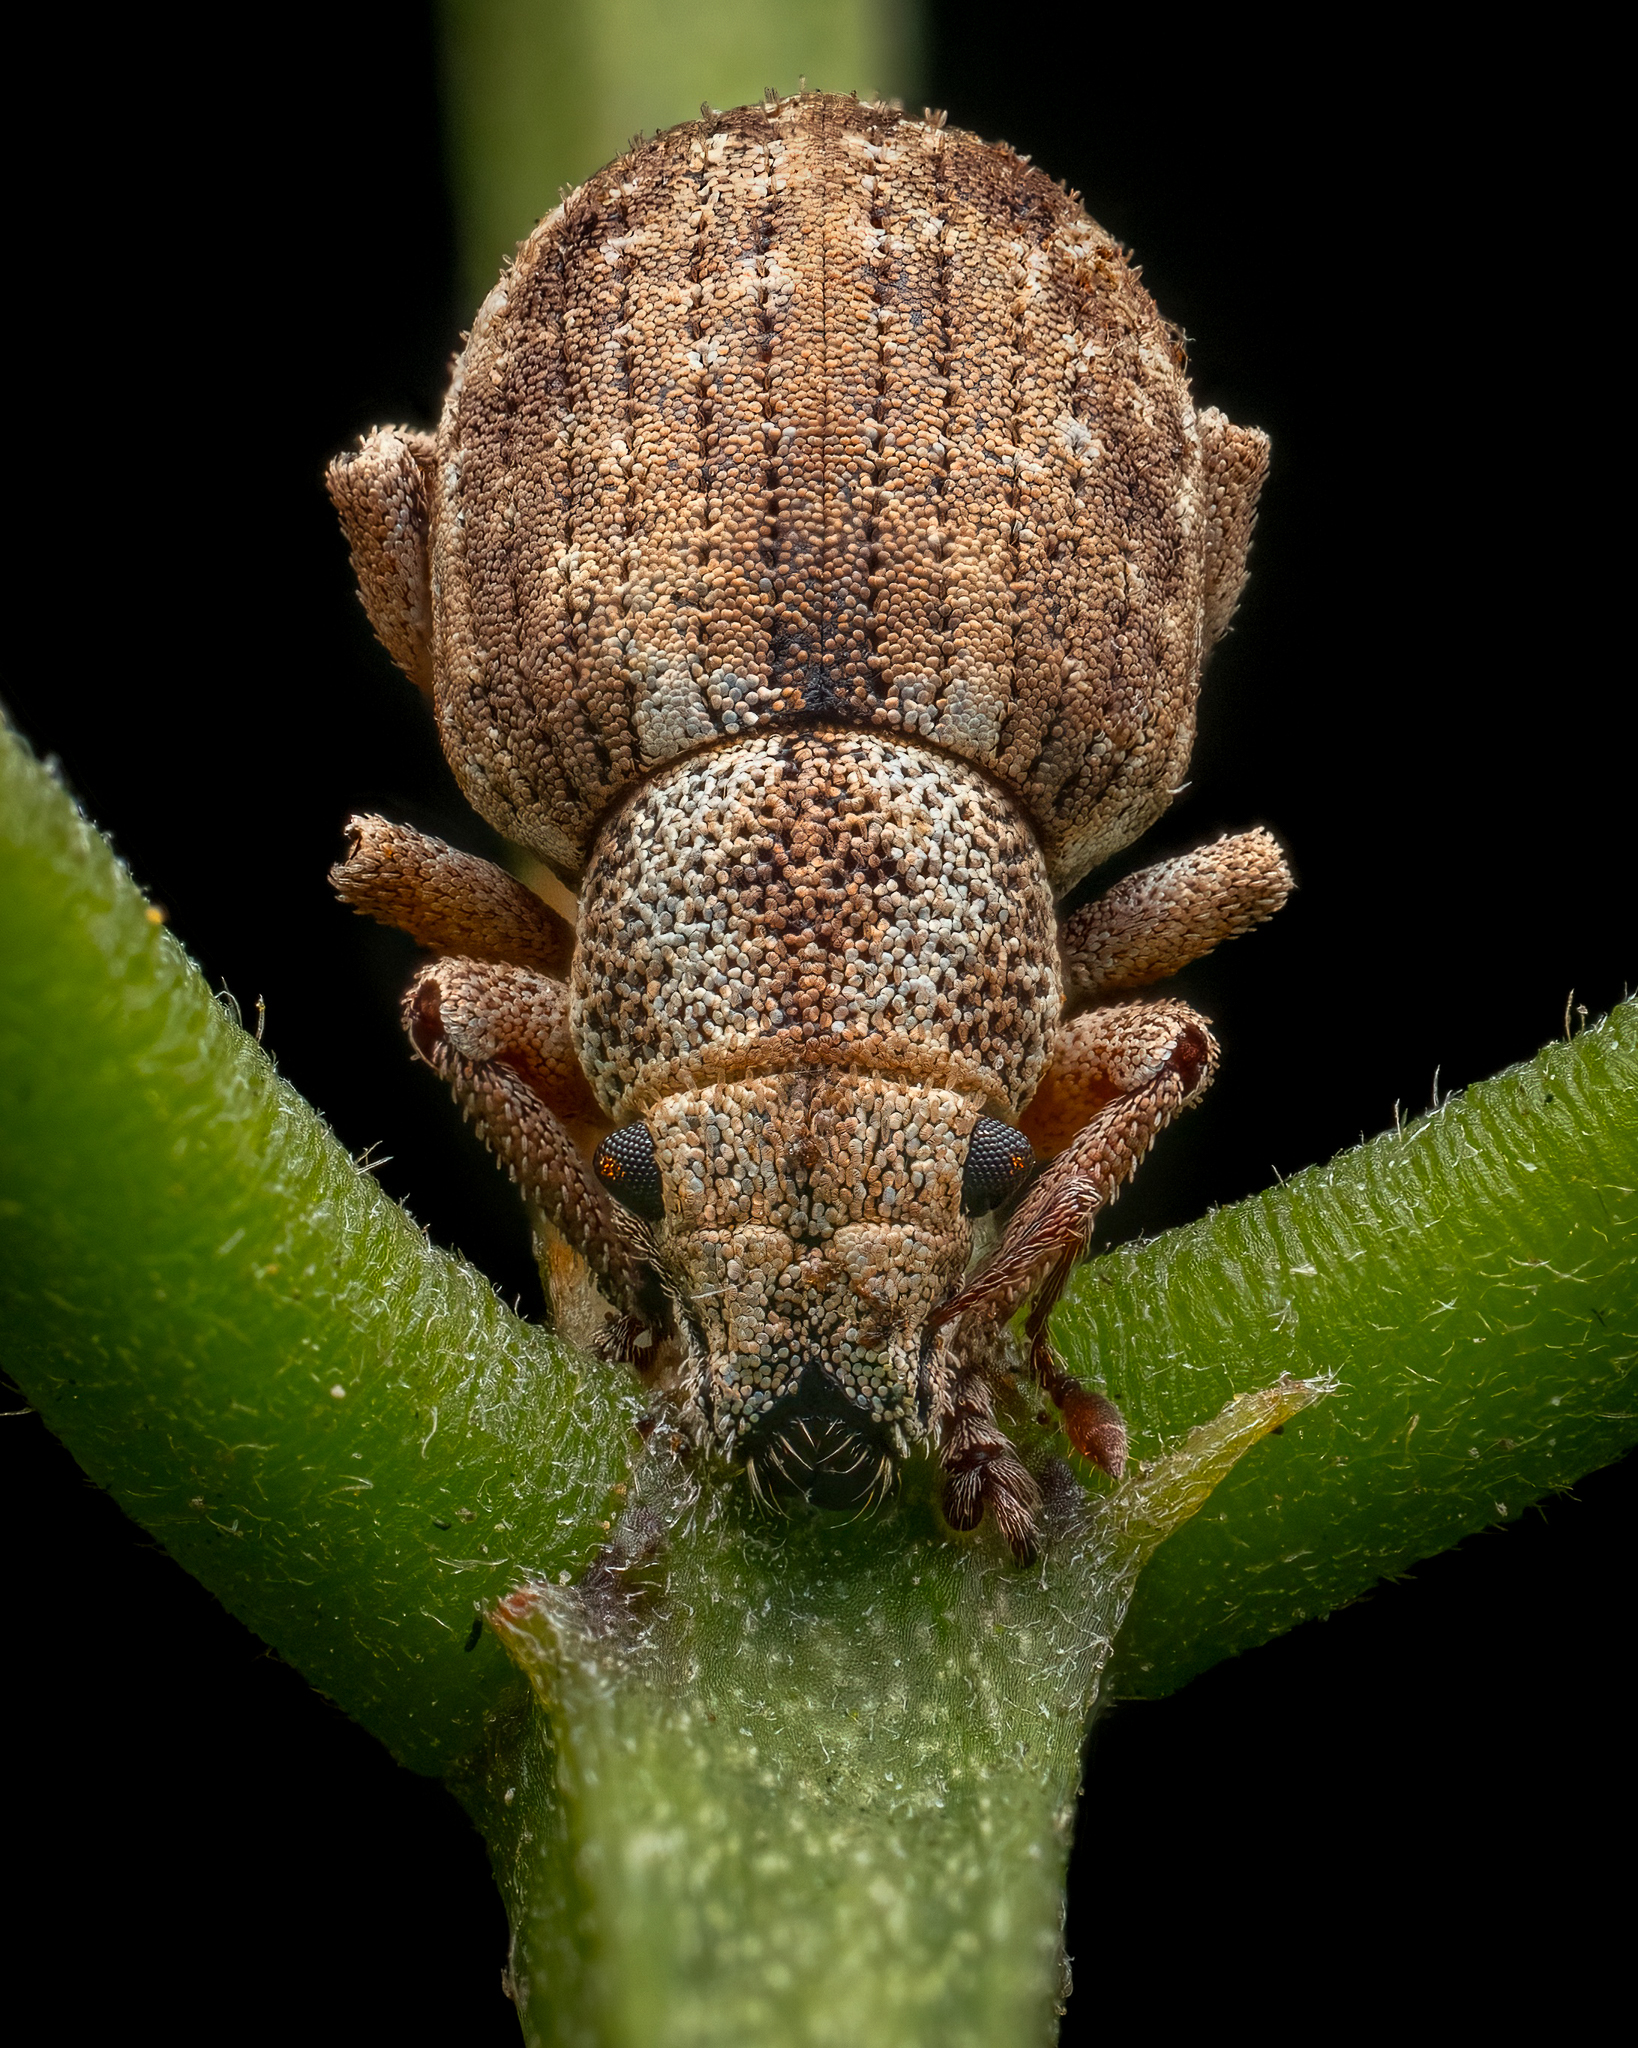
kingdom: Animalia
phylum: Arthropoda
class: Insecta
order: Coleoptera
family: Curculionidae
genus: Strophosoma
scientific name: Strophosoma capitatum
